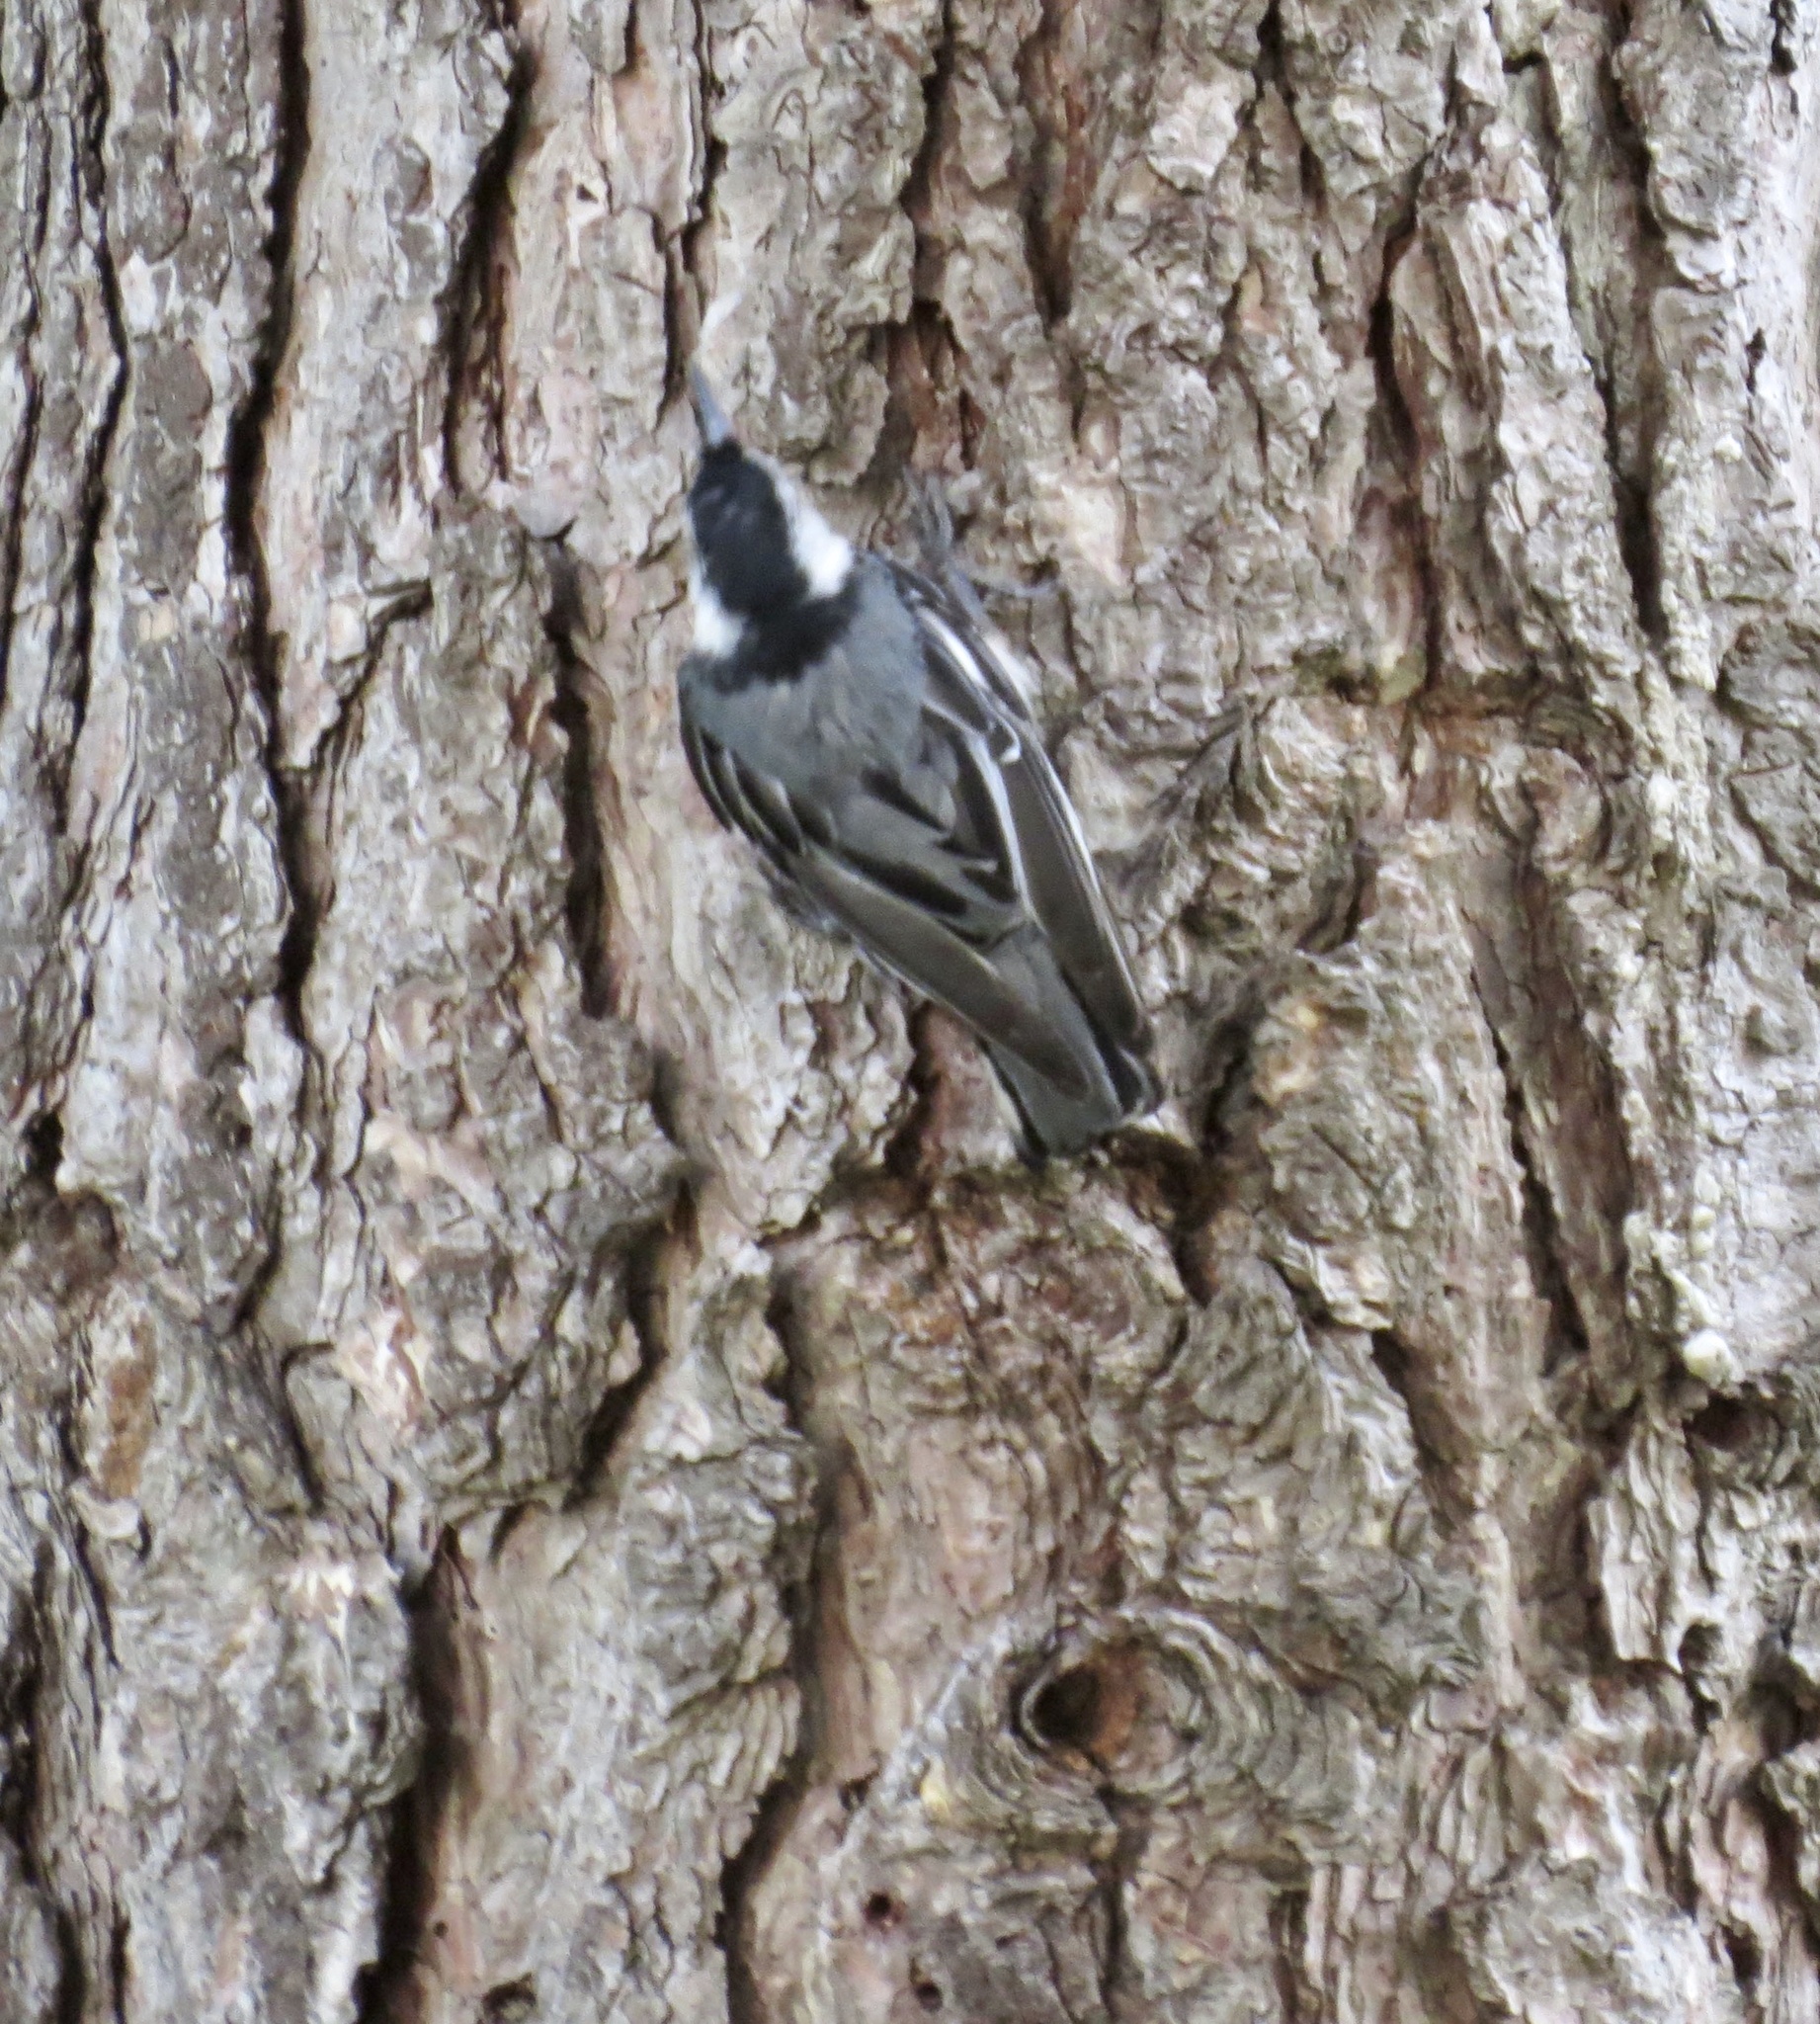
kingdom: Animalia
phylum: Chordata
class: Aves
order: Passeriformes
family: Sittidae
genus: Sitta
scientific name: Sitta carolinensis
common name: White-breasted nuthatch
